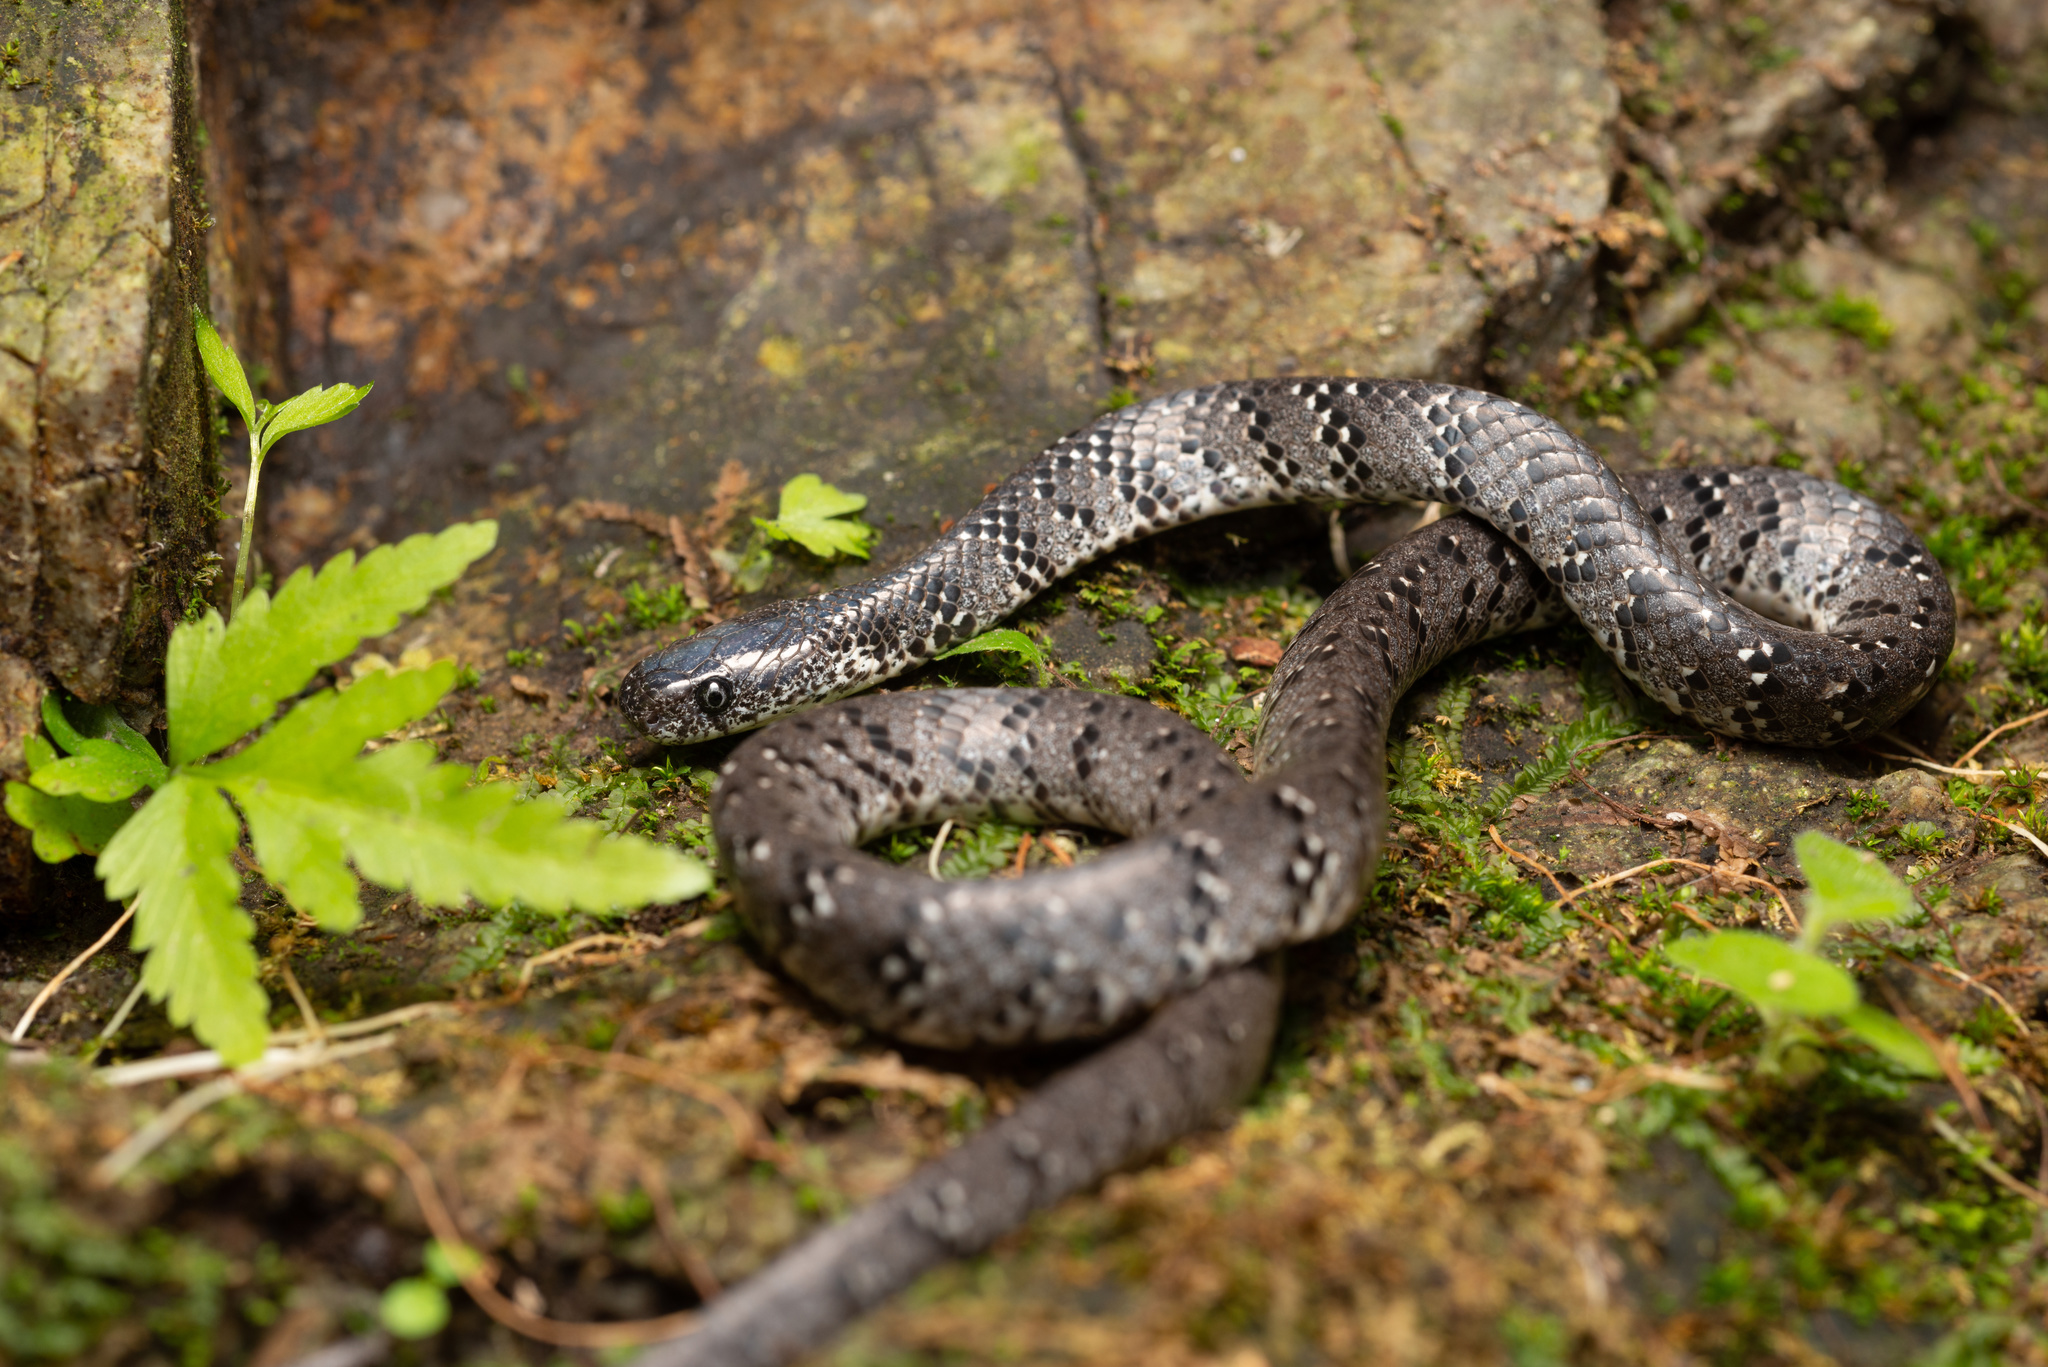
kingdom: Animalia
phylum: Chordata
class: Squamata
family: Pareidae
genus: Pareas
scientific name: Pareas margaritophorus
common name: Mountain slug snake
